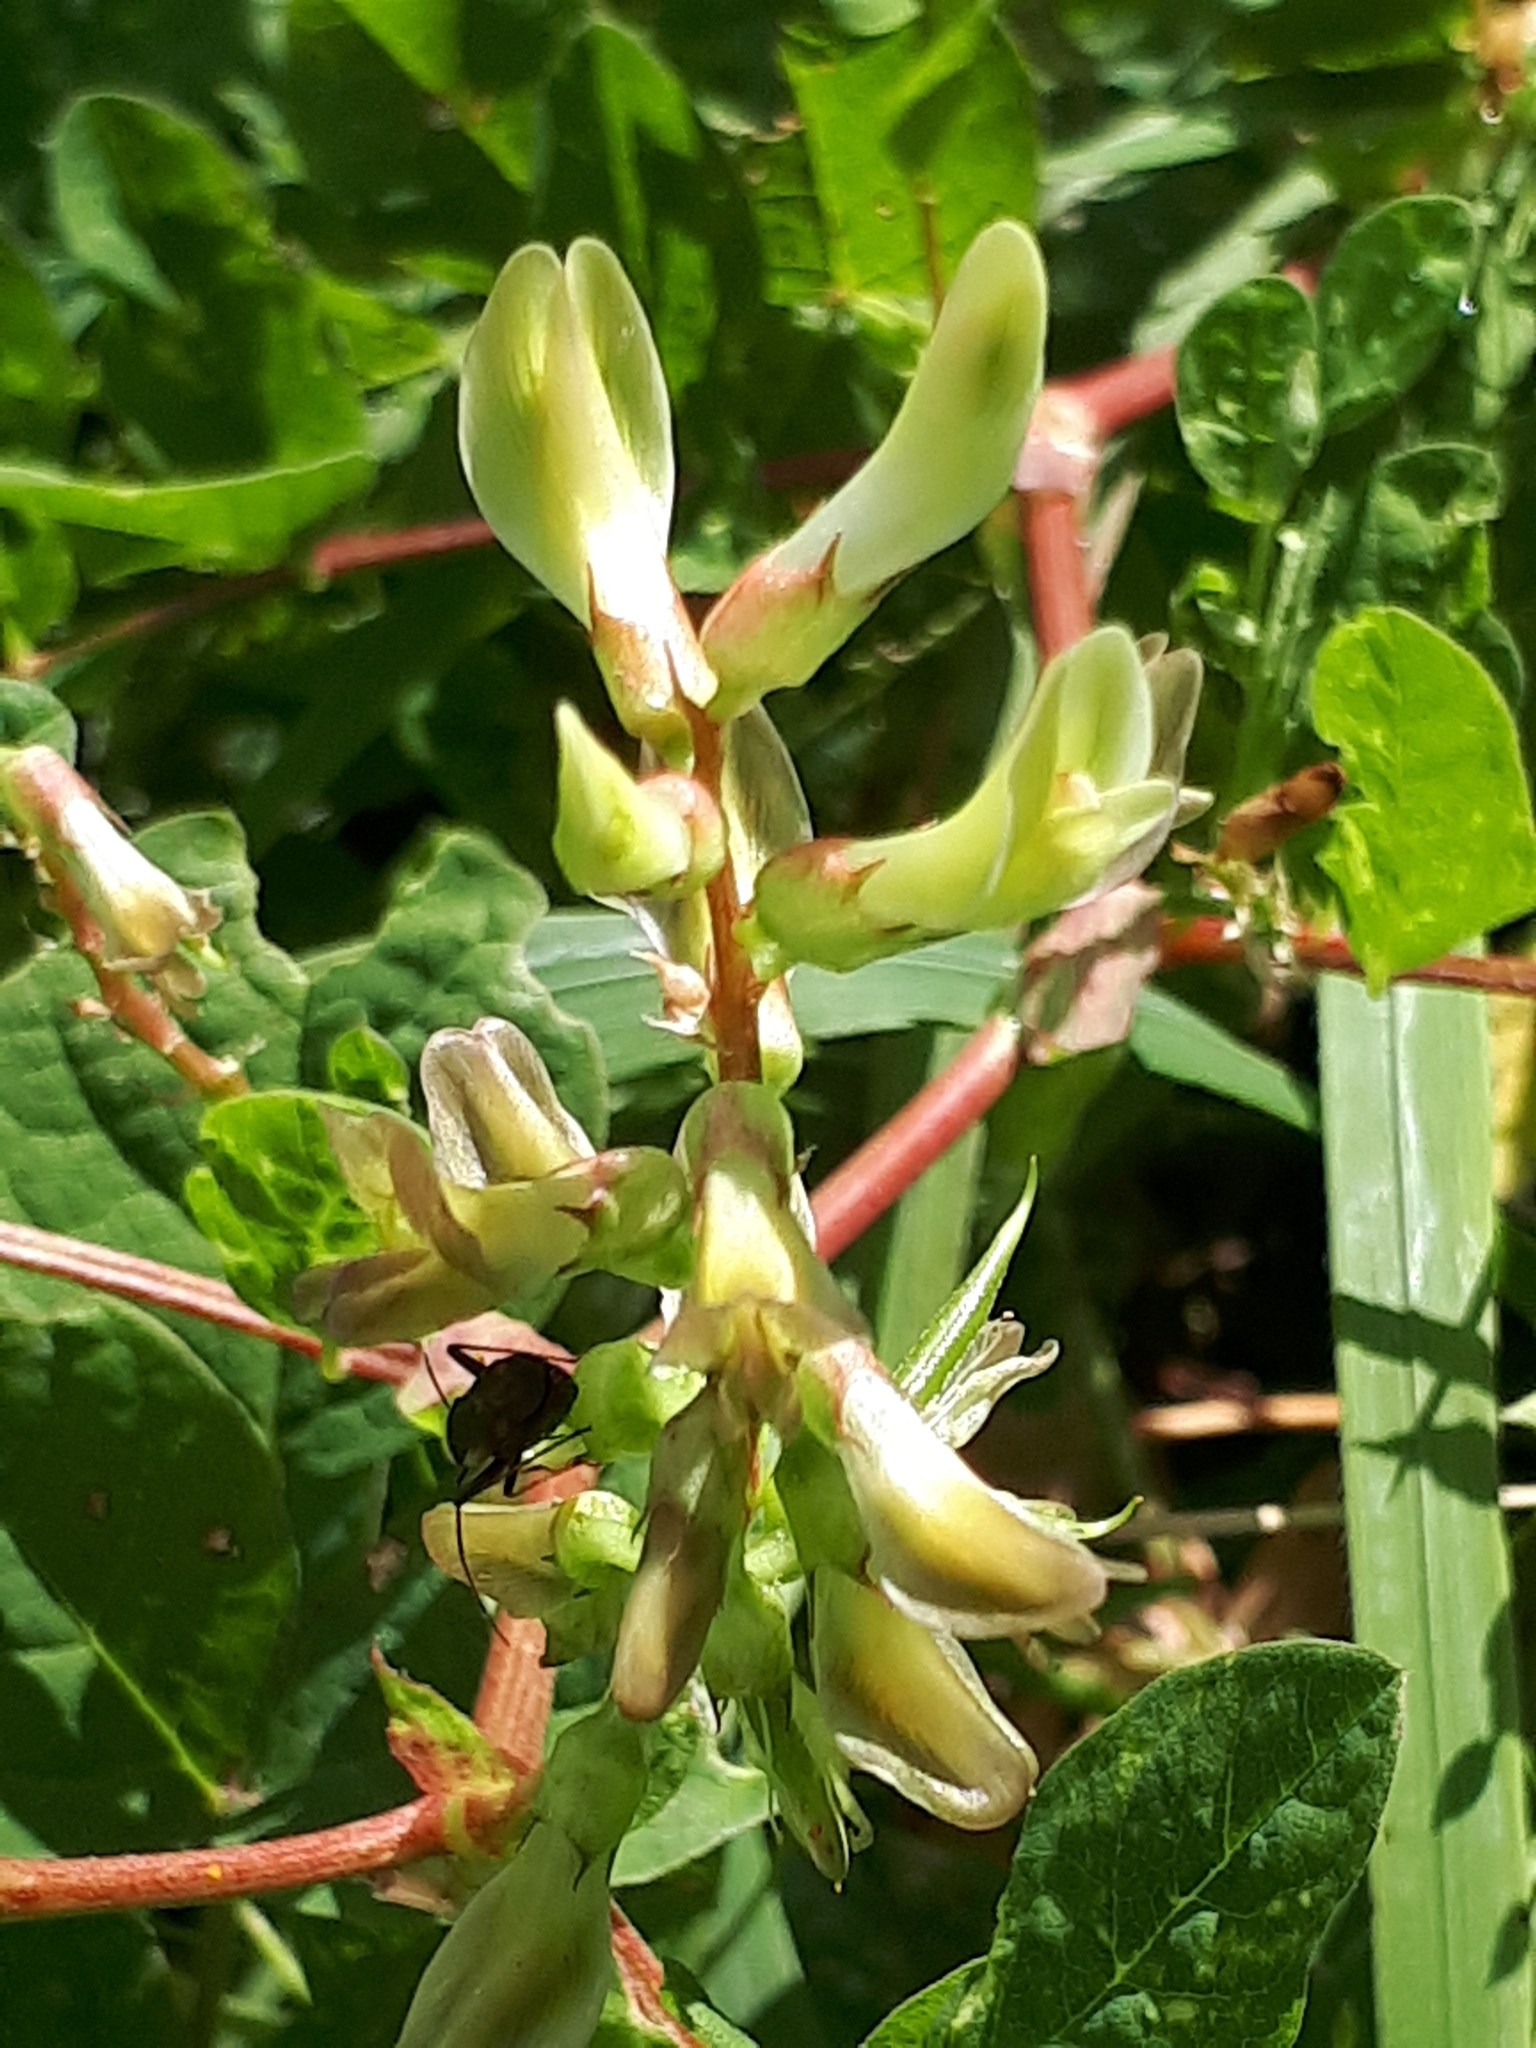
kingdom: Plantae
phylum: Tracheophyta
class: Magnoliopsida
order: Fabales
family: Fabaceae
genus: Astragalus
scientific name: Astragalus glycyphyllos
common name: Wild liquorice
